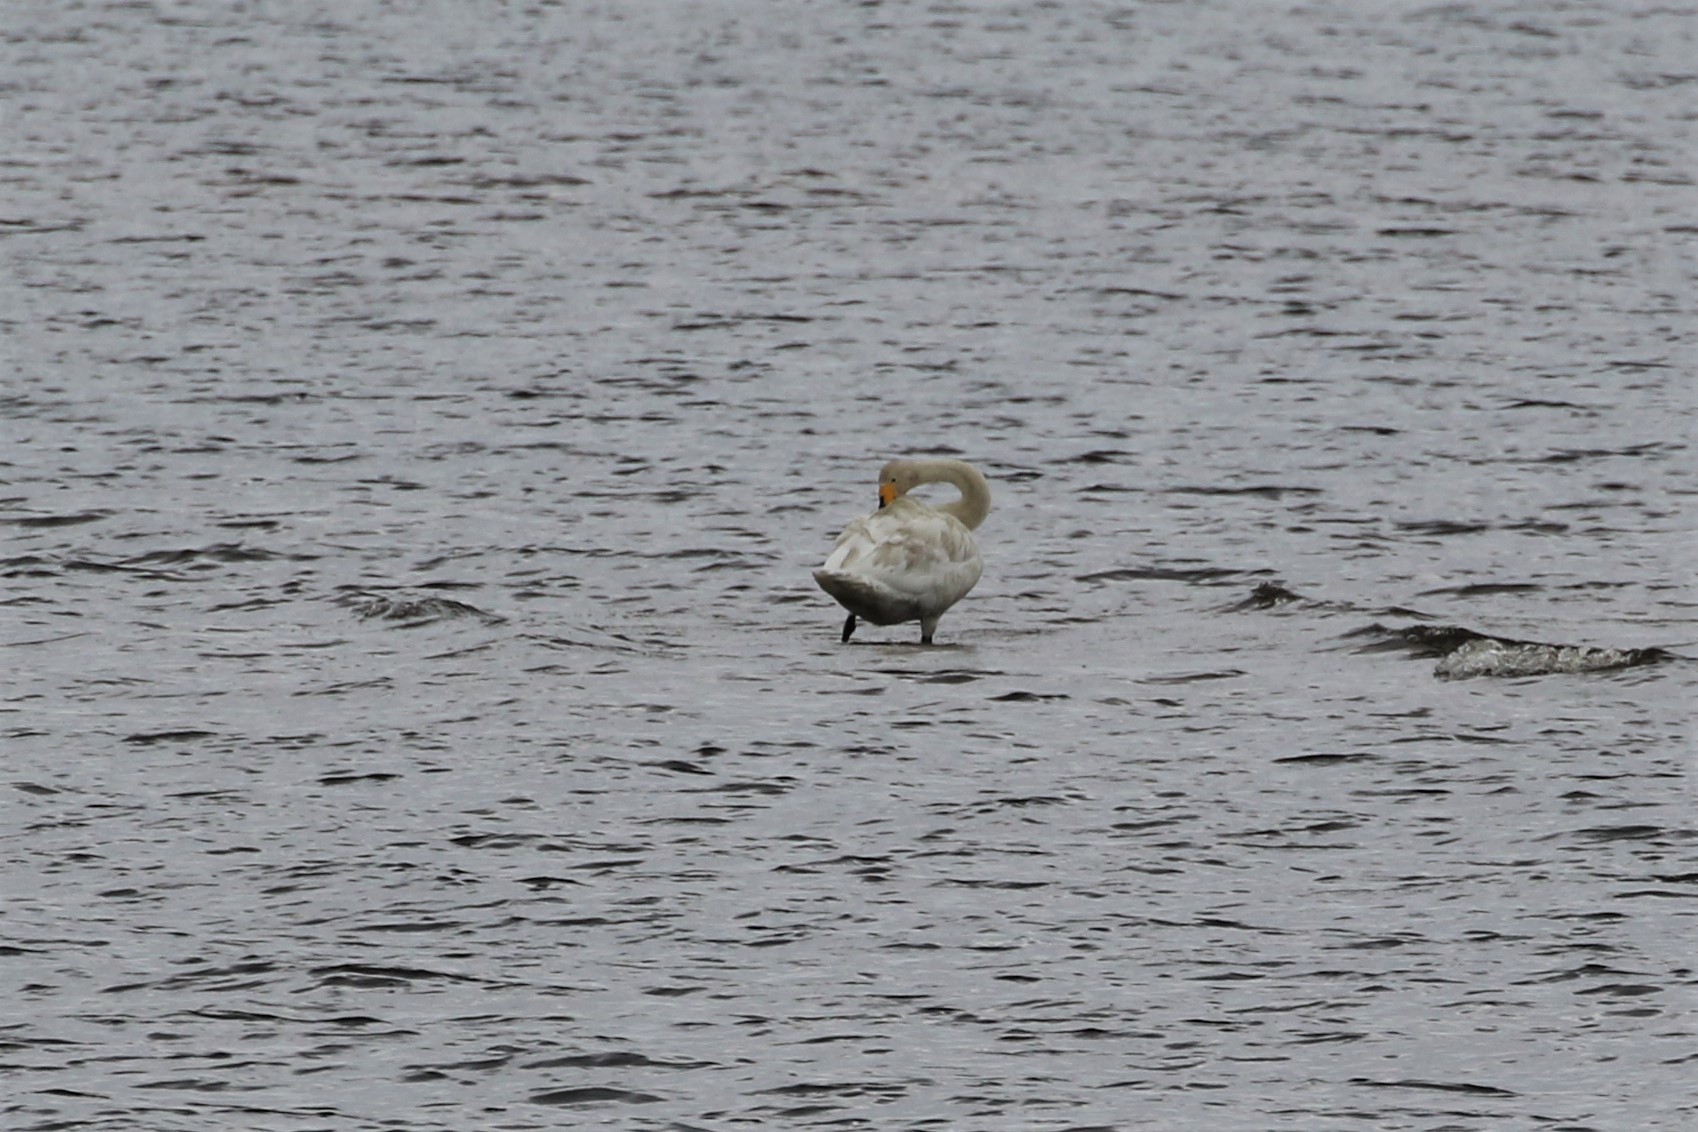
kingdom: Animalia
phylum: Chordata
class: Aves
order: Anseriformes
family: Anatidae
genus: Cygnus
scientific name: Cygnus cygnus
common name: Whooper swan
